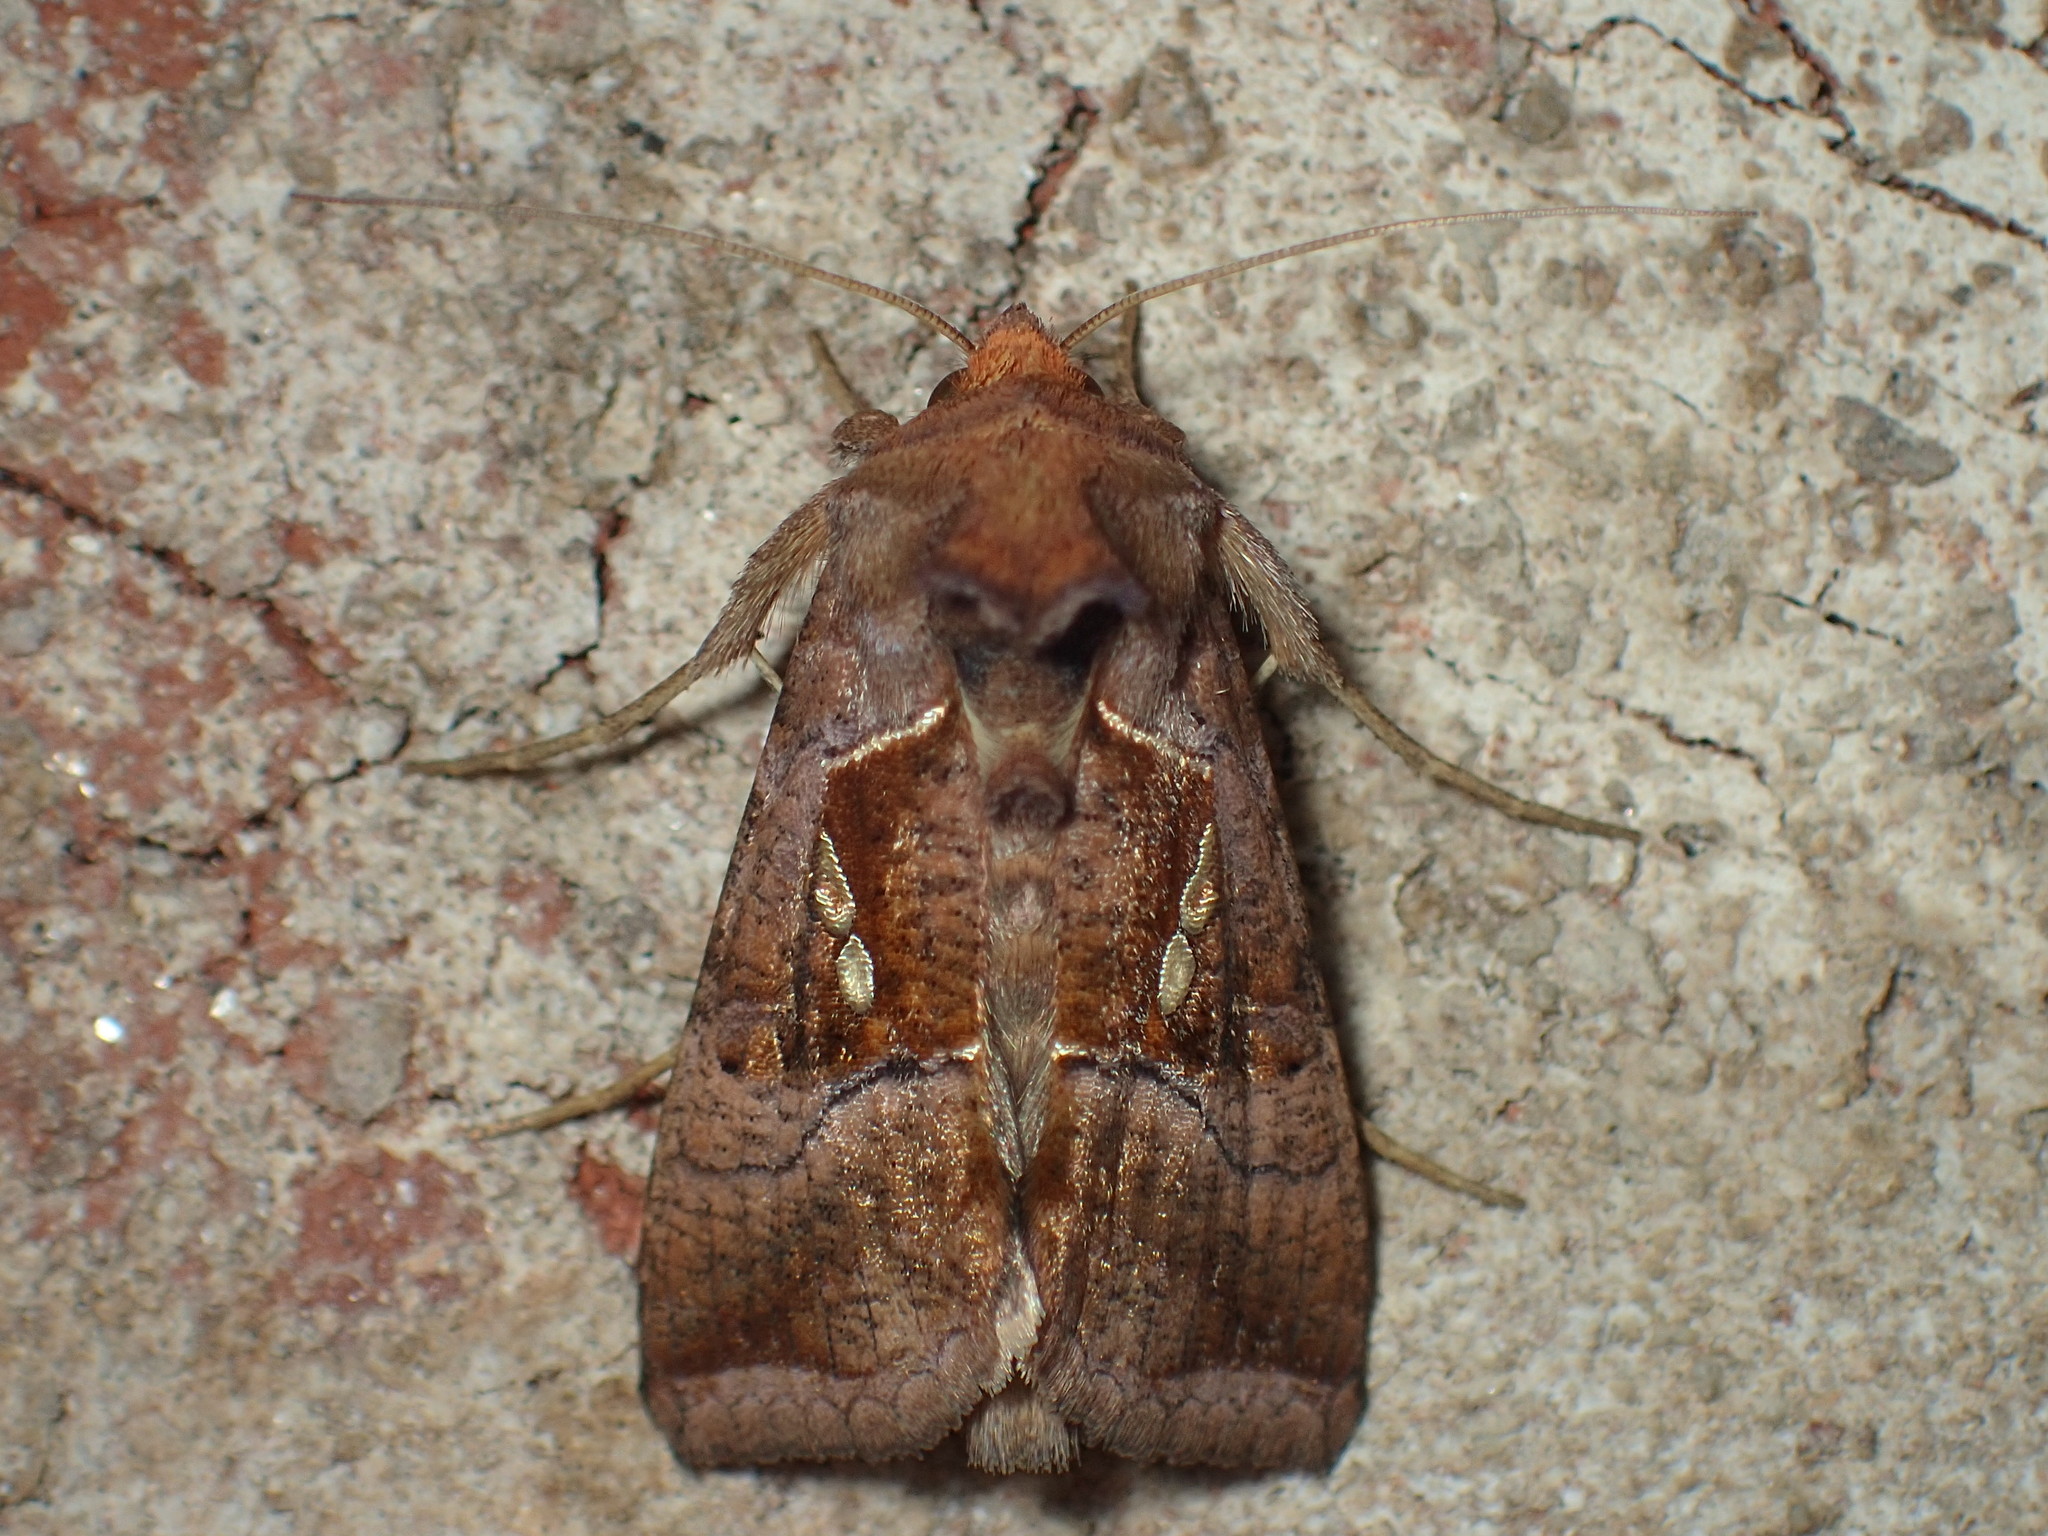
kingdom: Animalia
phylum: Arthropoda
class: Insecta
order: Lepidoptera
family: Noctuidae
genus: Enigmogramma
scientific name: Enigmogramma basigera
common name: Pink-washed looper moth
